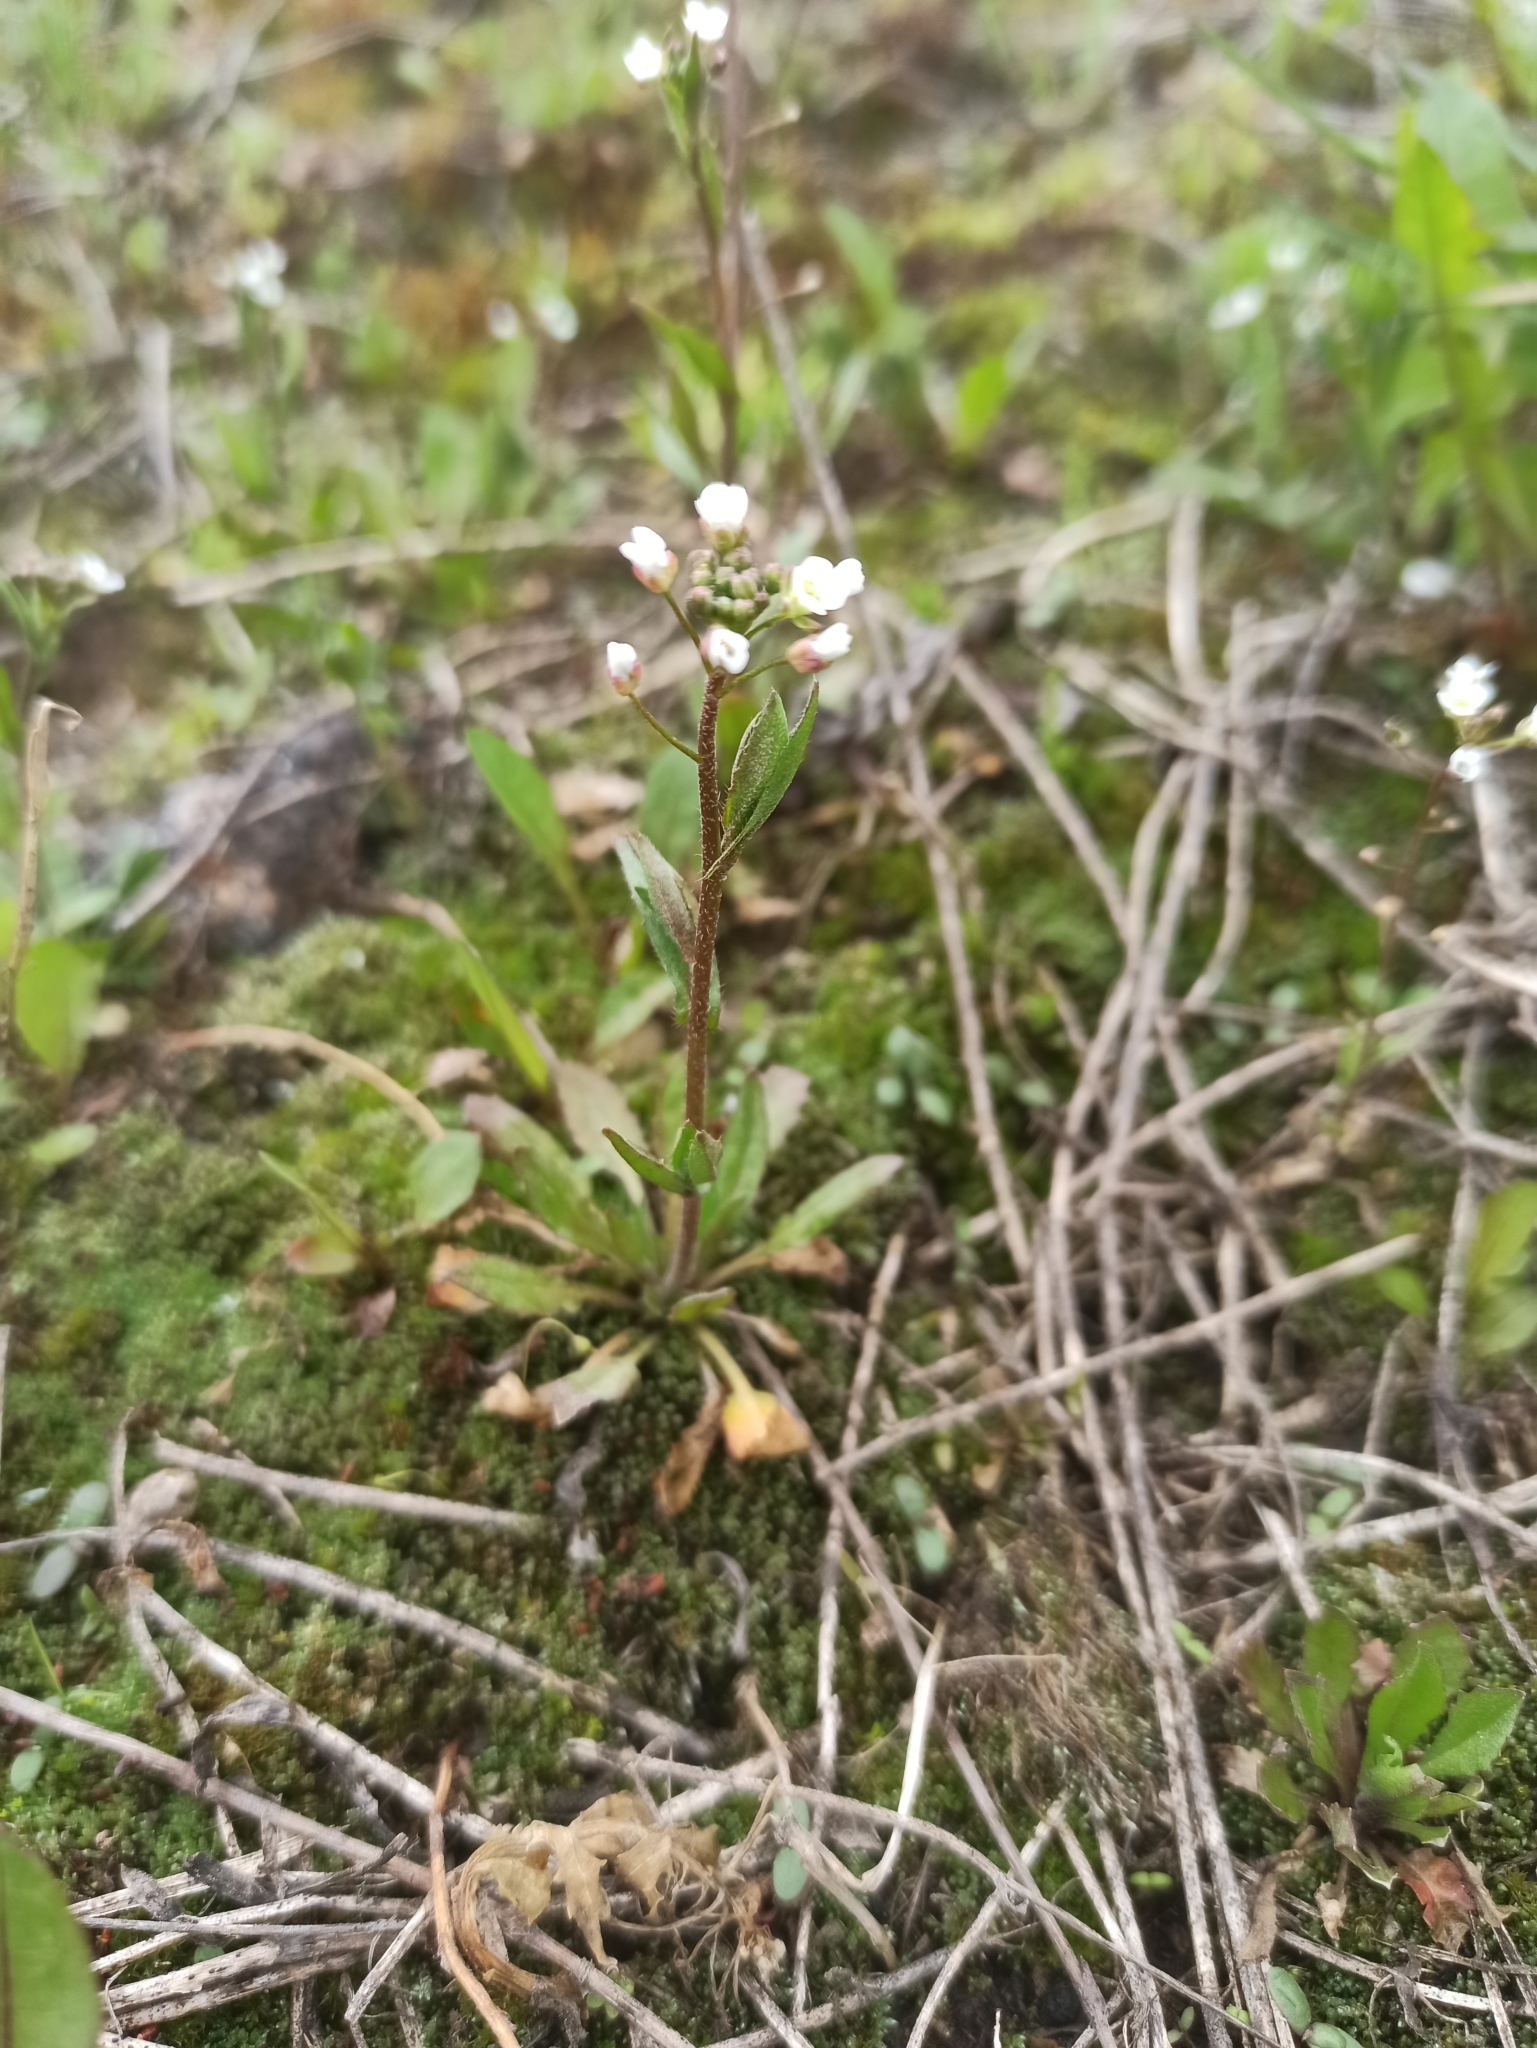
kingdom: Plantae
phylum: Tracheophyta
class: Magnoliopsida
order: Brassicales
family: Brassicaceae
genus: Capsella
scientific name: Capsella bursa-pastoris
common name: Shepherd's purse
